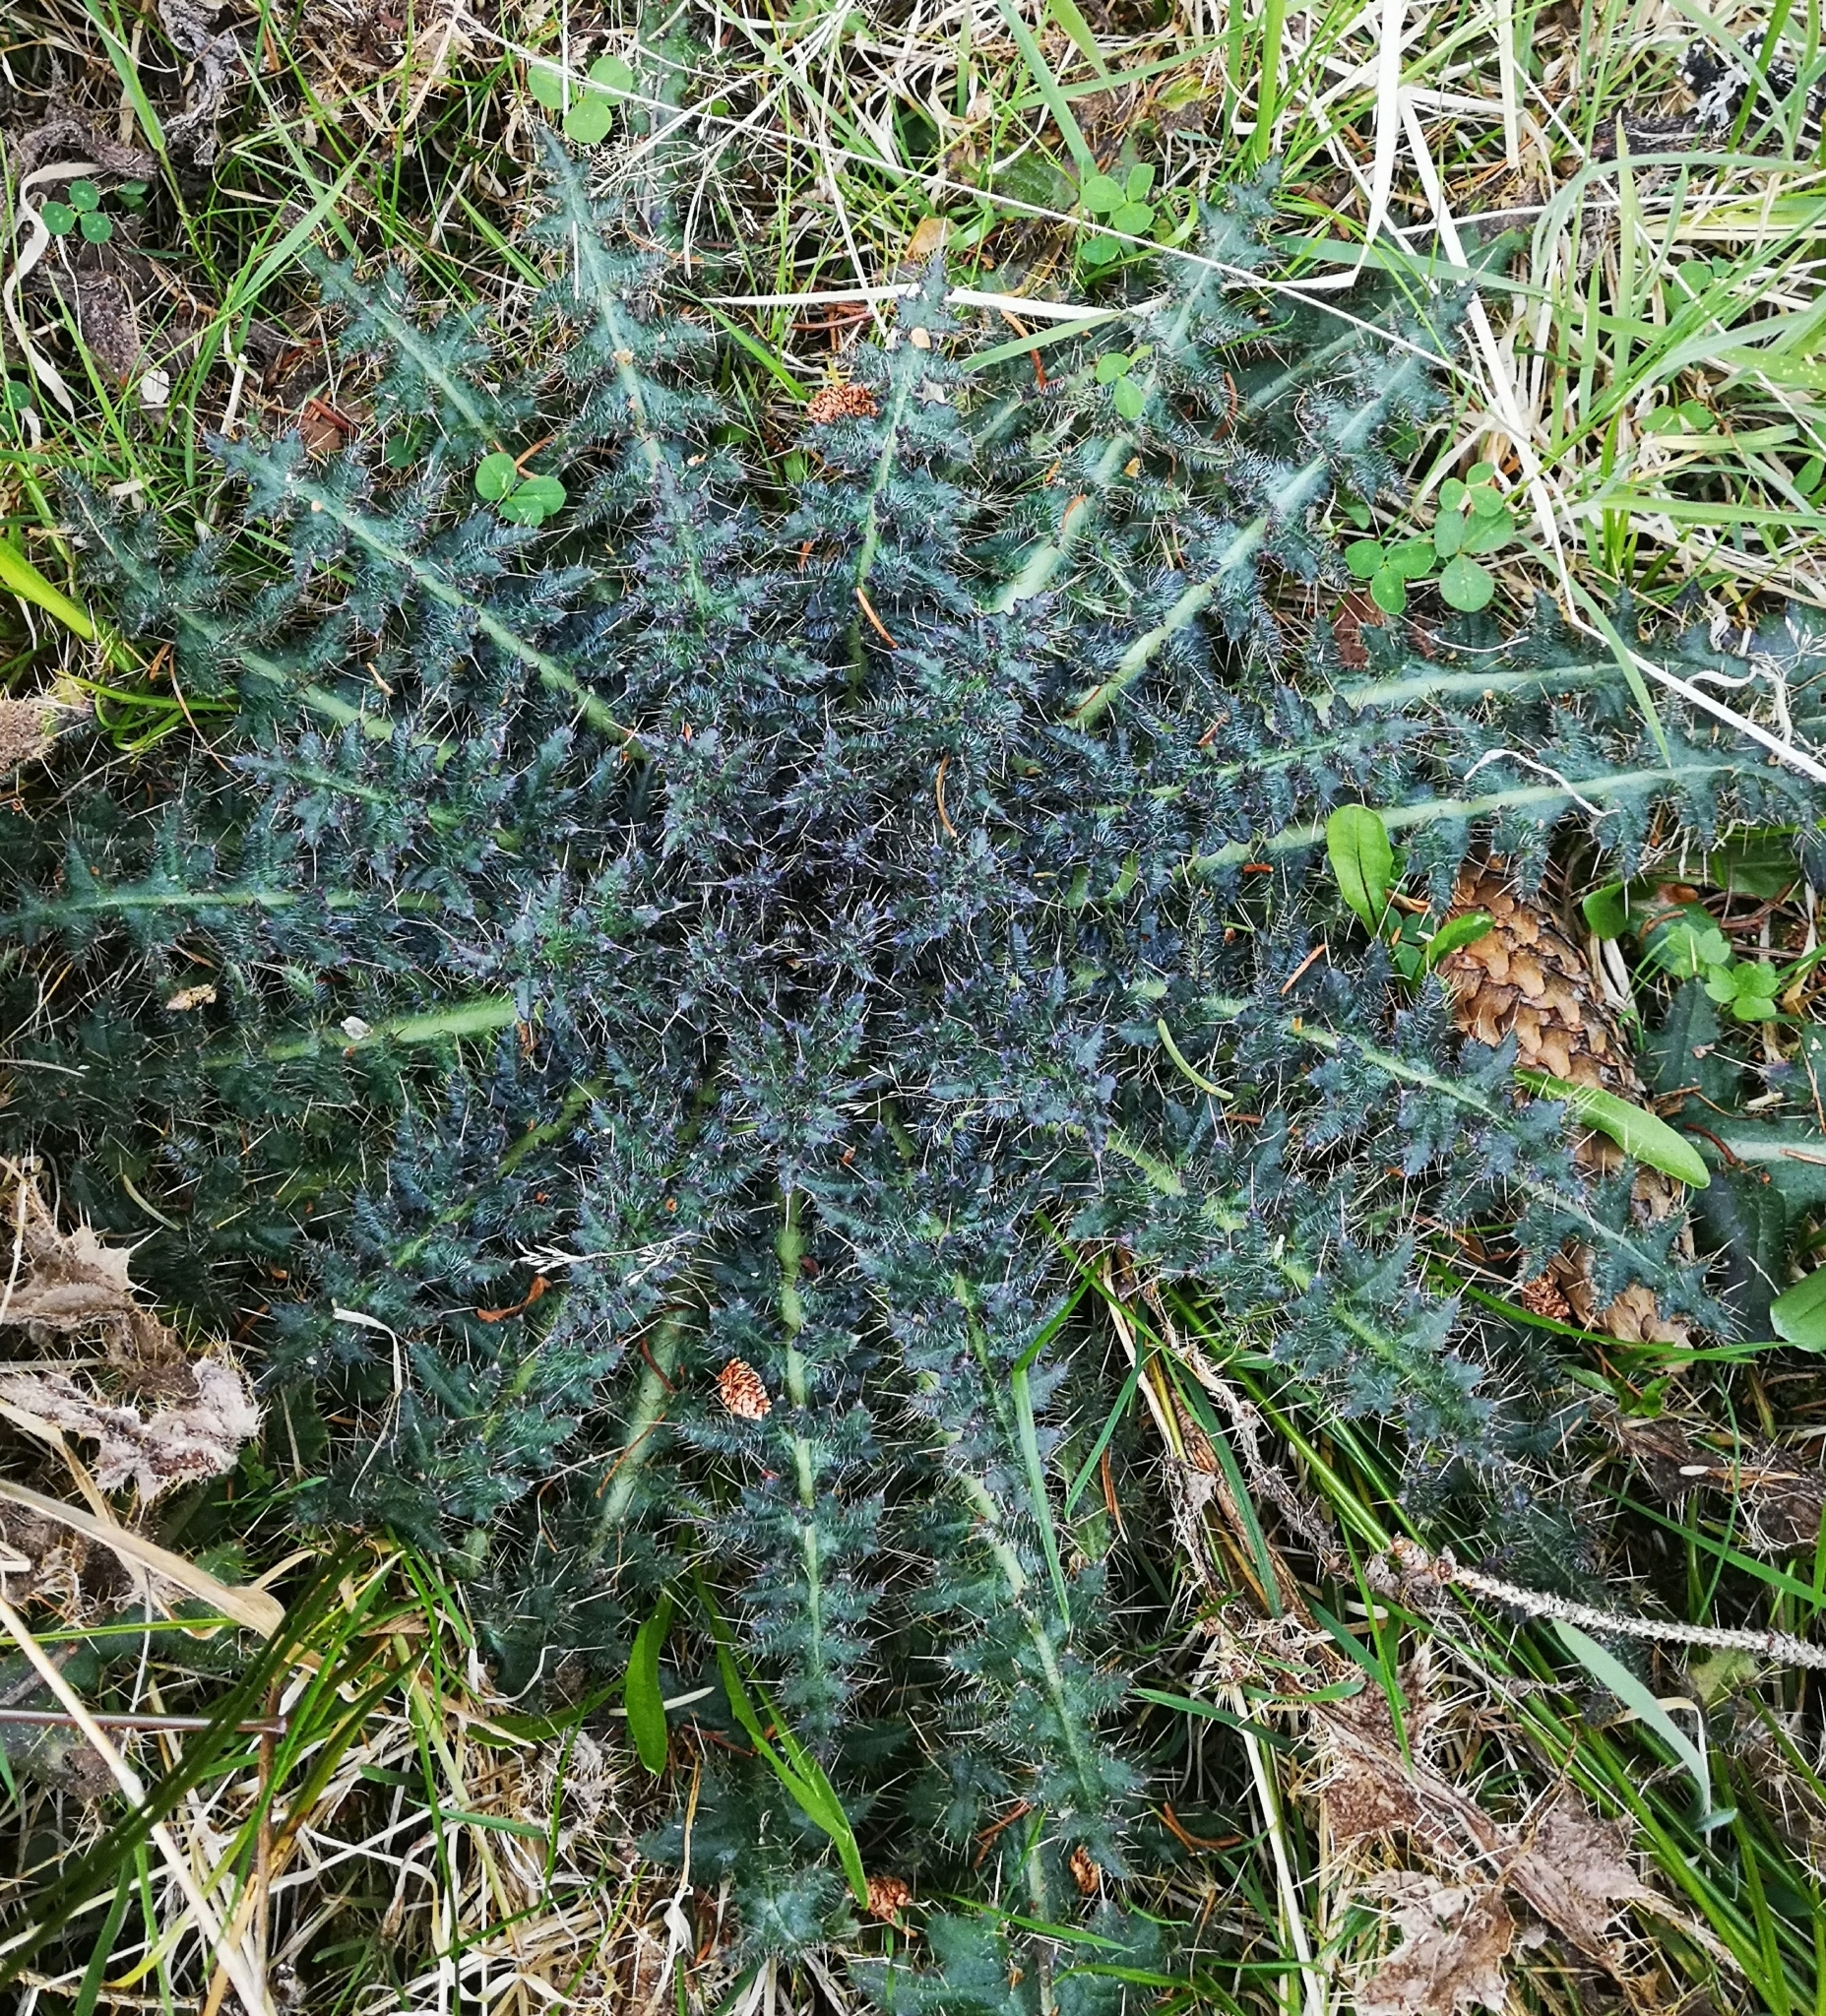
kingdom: Plantae
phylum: Tracheophyta
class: Magnoliopsida
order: Asterales
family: Asteraceae
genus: Cirsium
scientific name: Cirsium palustre
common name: Marsh thistle
